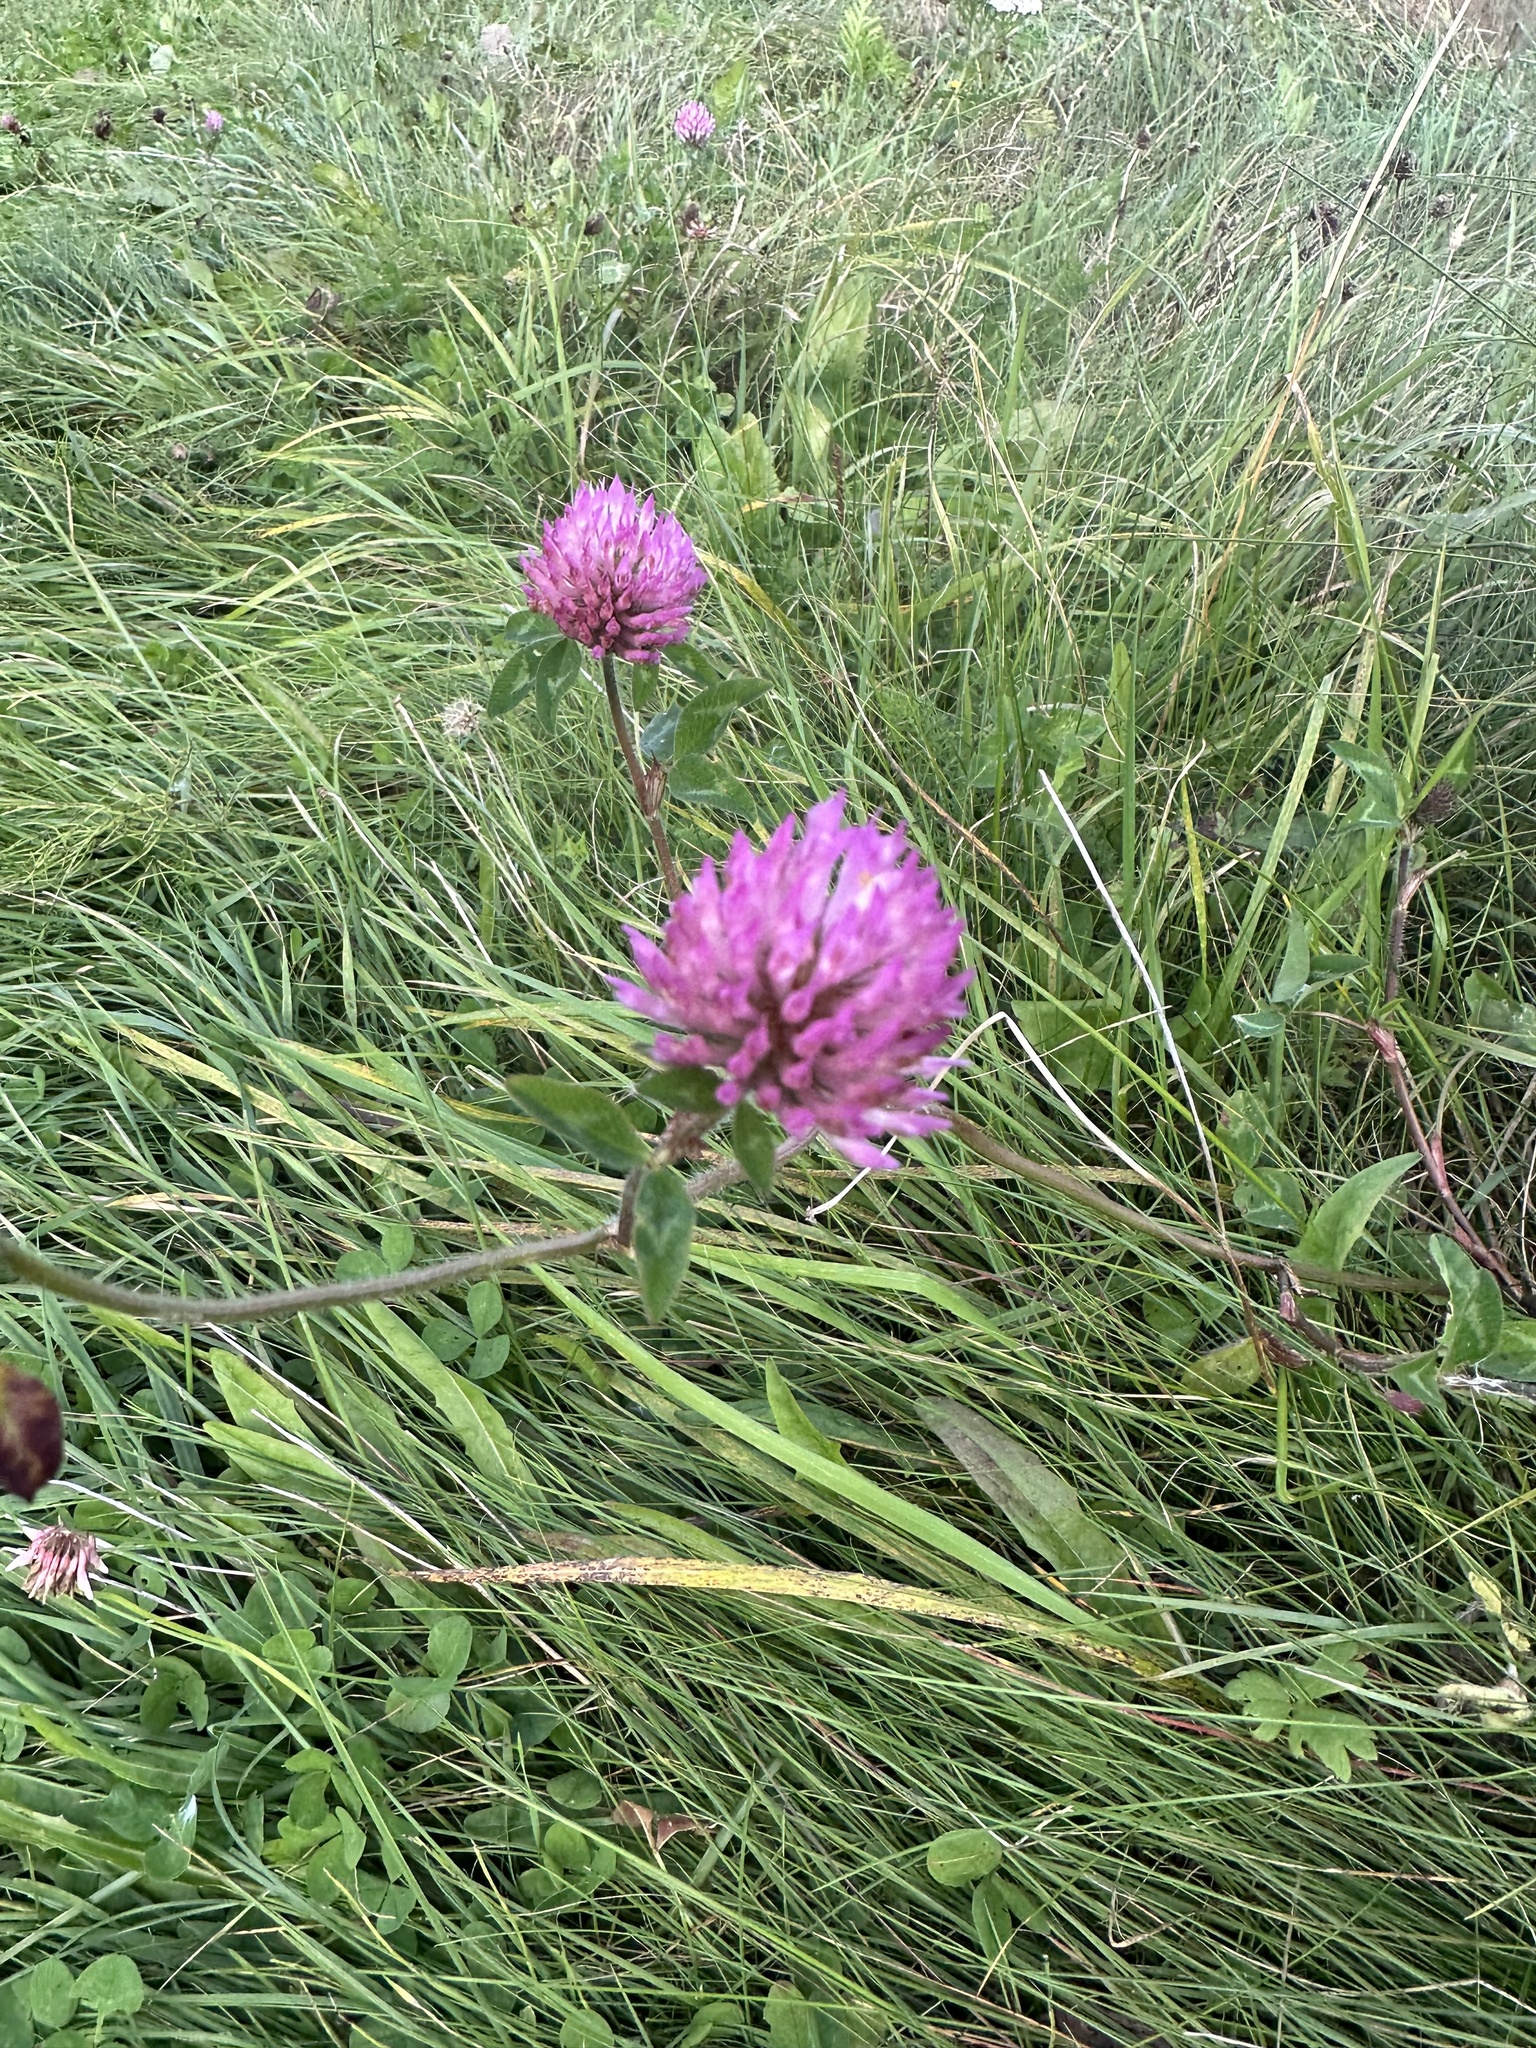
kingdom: Plantae
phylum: Tracheophyta
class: Magnoliopsida
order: Fabales
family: Fabaceae
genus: Trifolium
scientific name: Trifolium pratense
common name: Red clover
